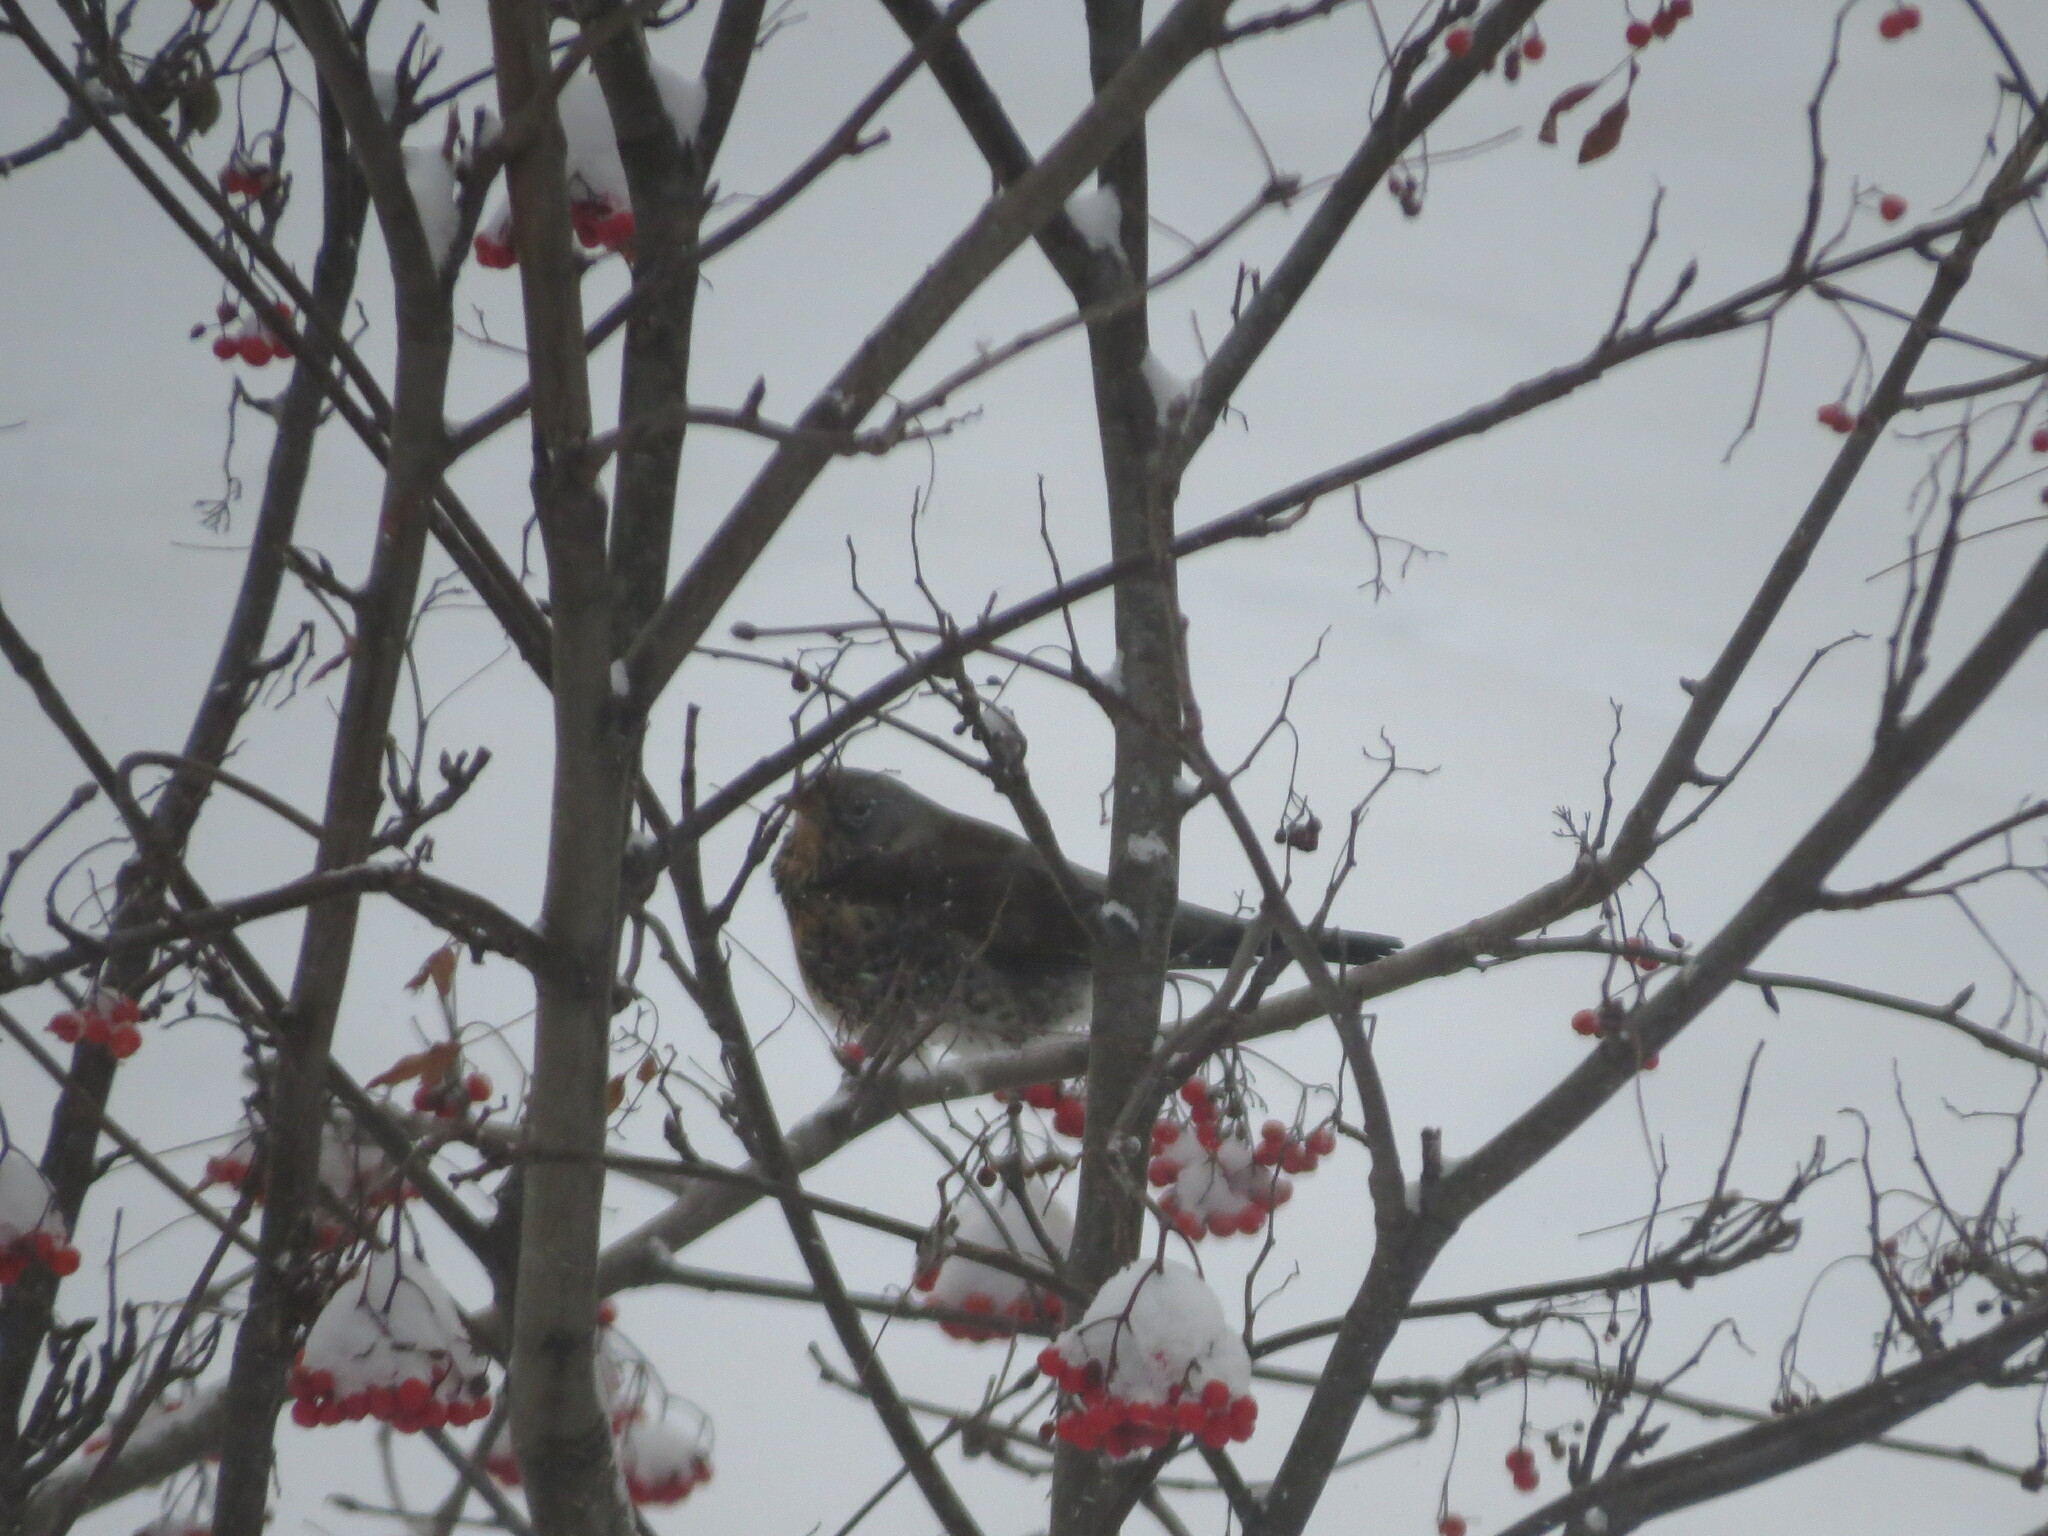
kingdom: Animalia
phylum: Chordata
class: Aves
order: Passeriformes
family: Turdidae
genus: Turdus
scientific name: Turdus pilaris
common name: Fieldfare
